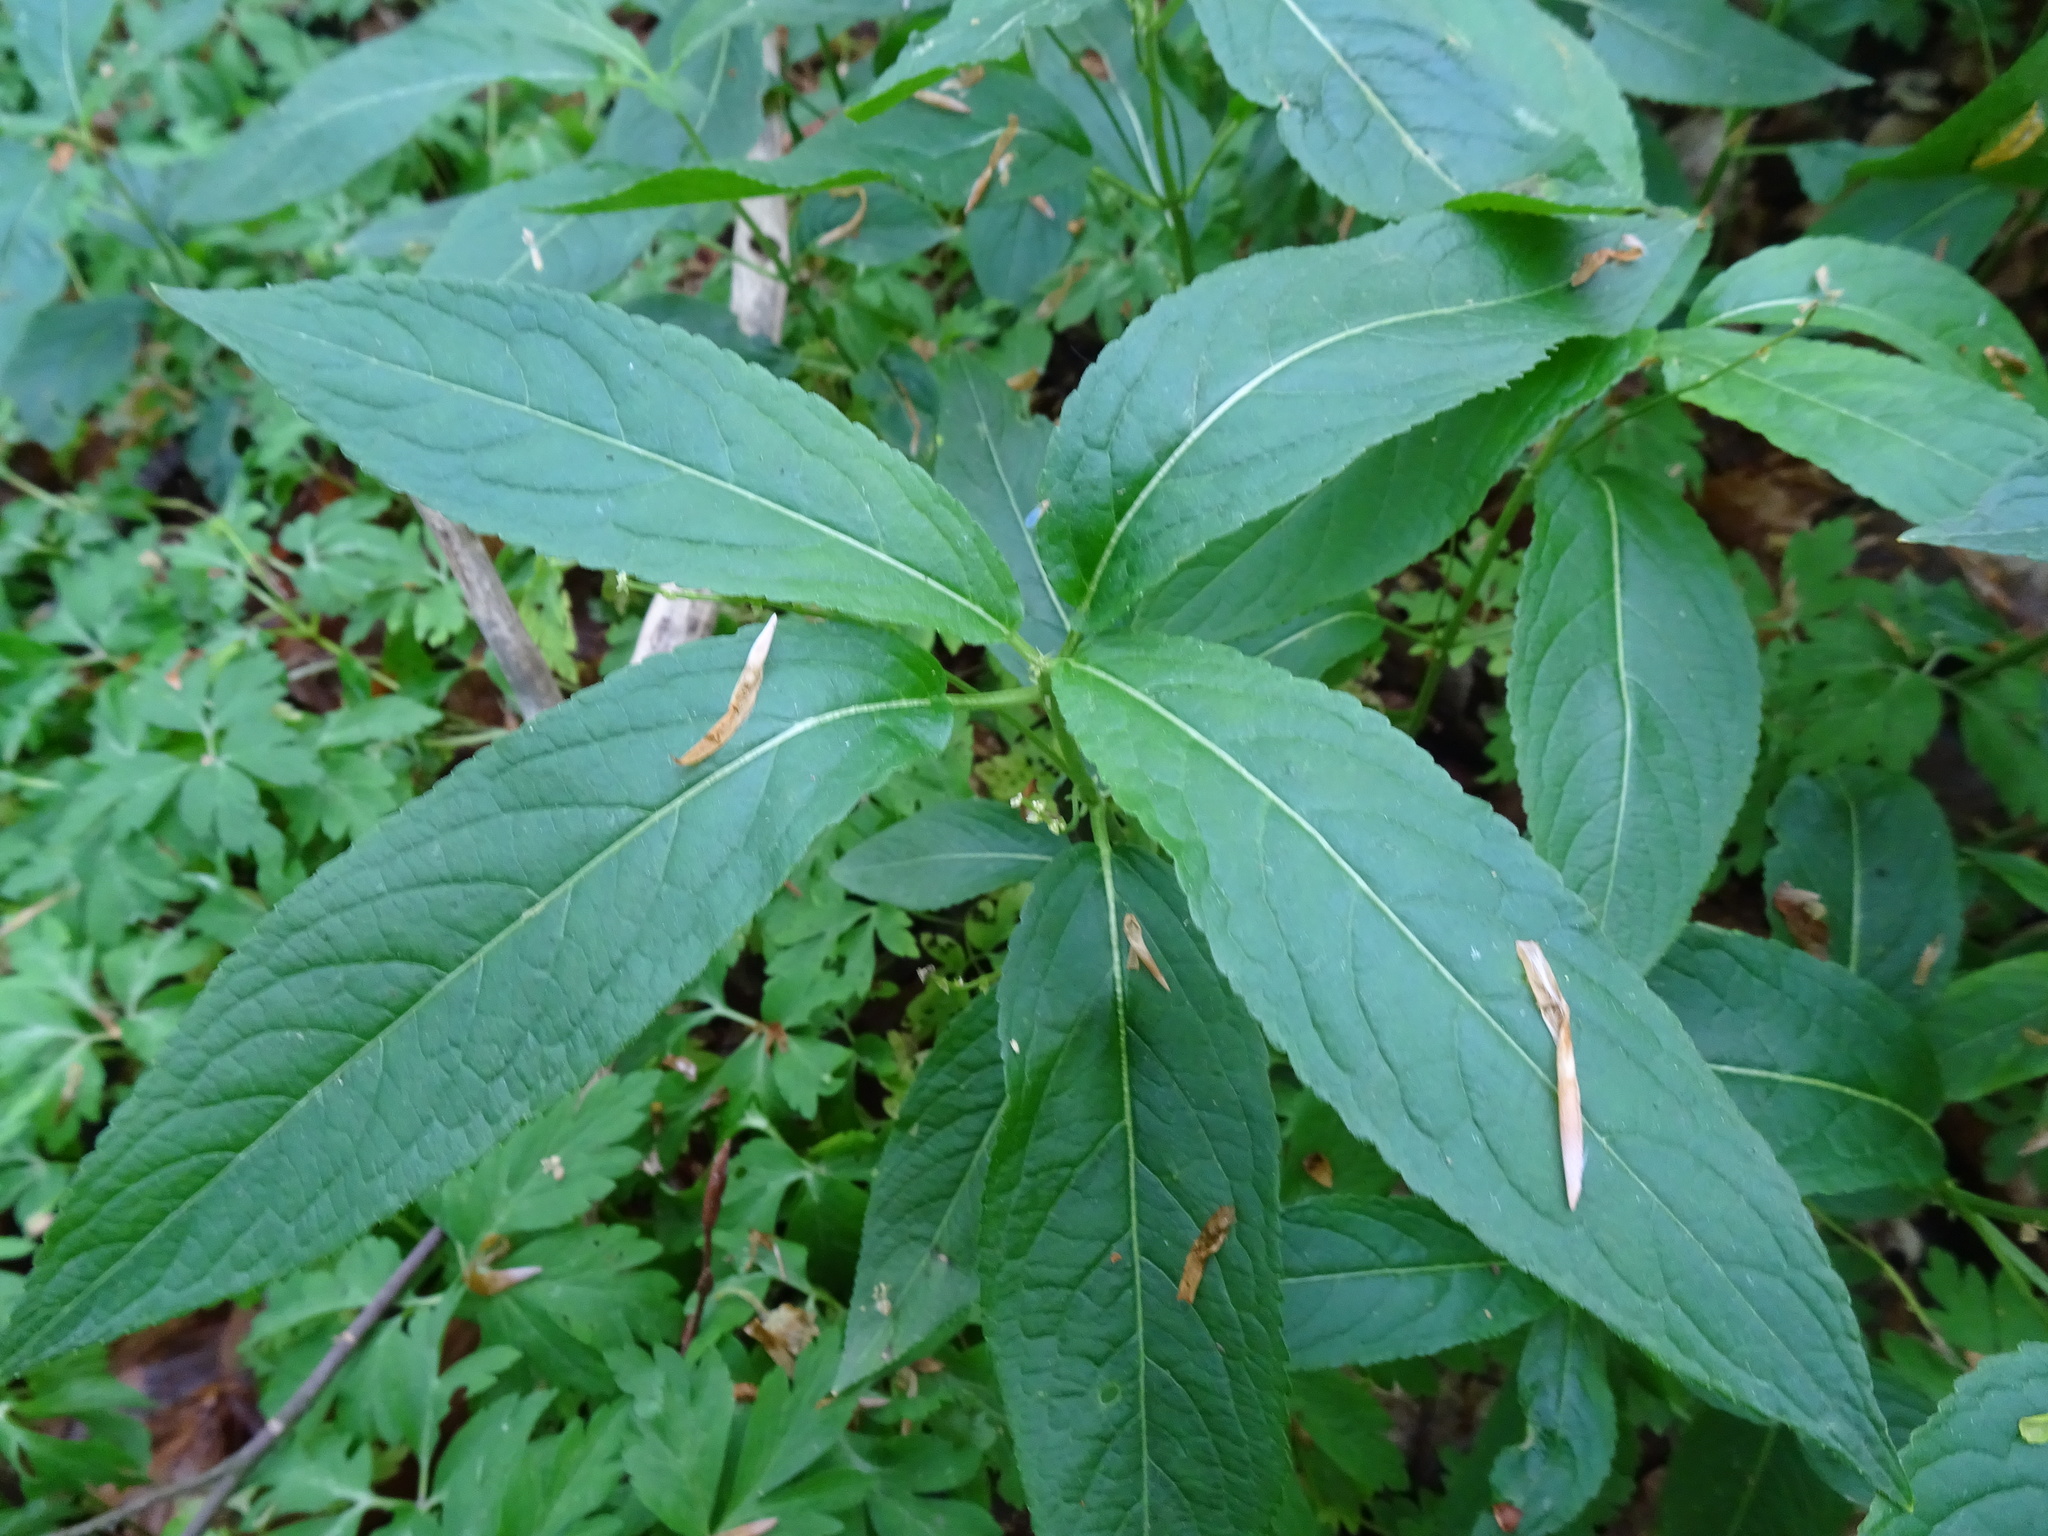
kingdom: Plantae
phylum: Tracheophyta
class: Magnoliopsida
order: Malpighiales
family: Euphorbiaceae
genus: Mercurialis
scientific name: Mercurialis perennis
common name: Dog mercury
